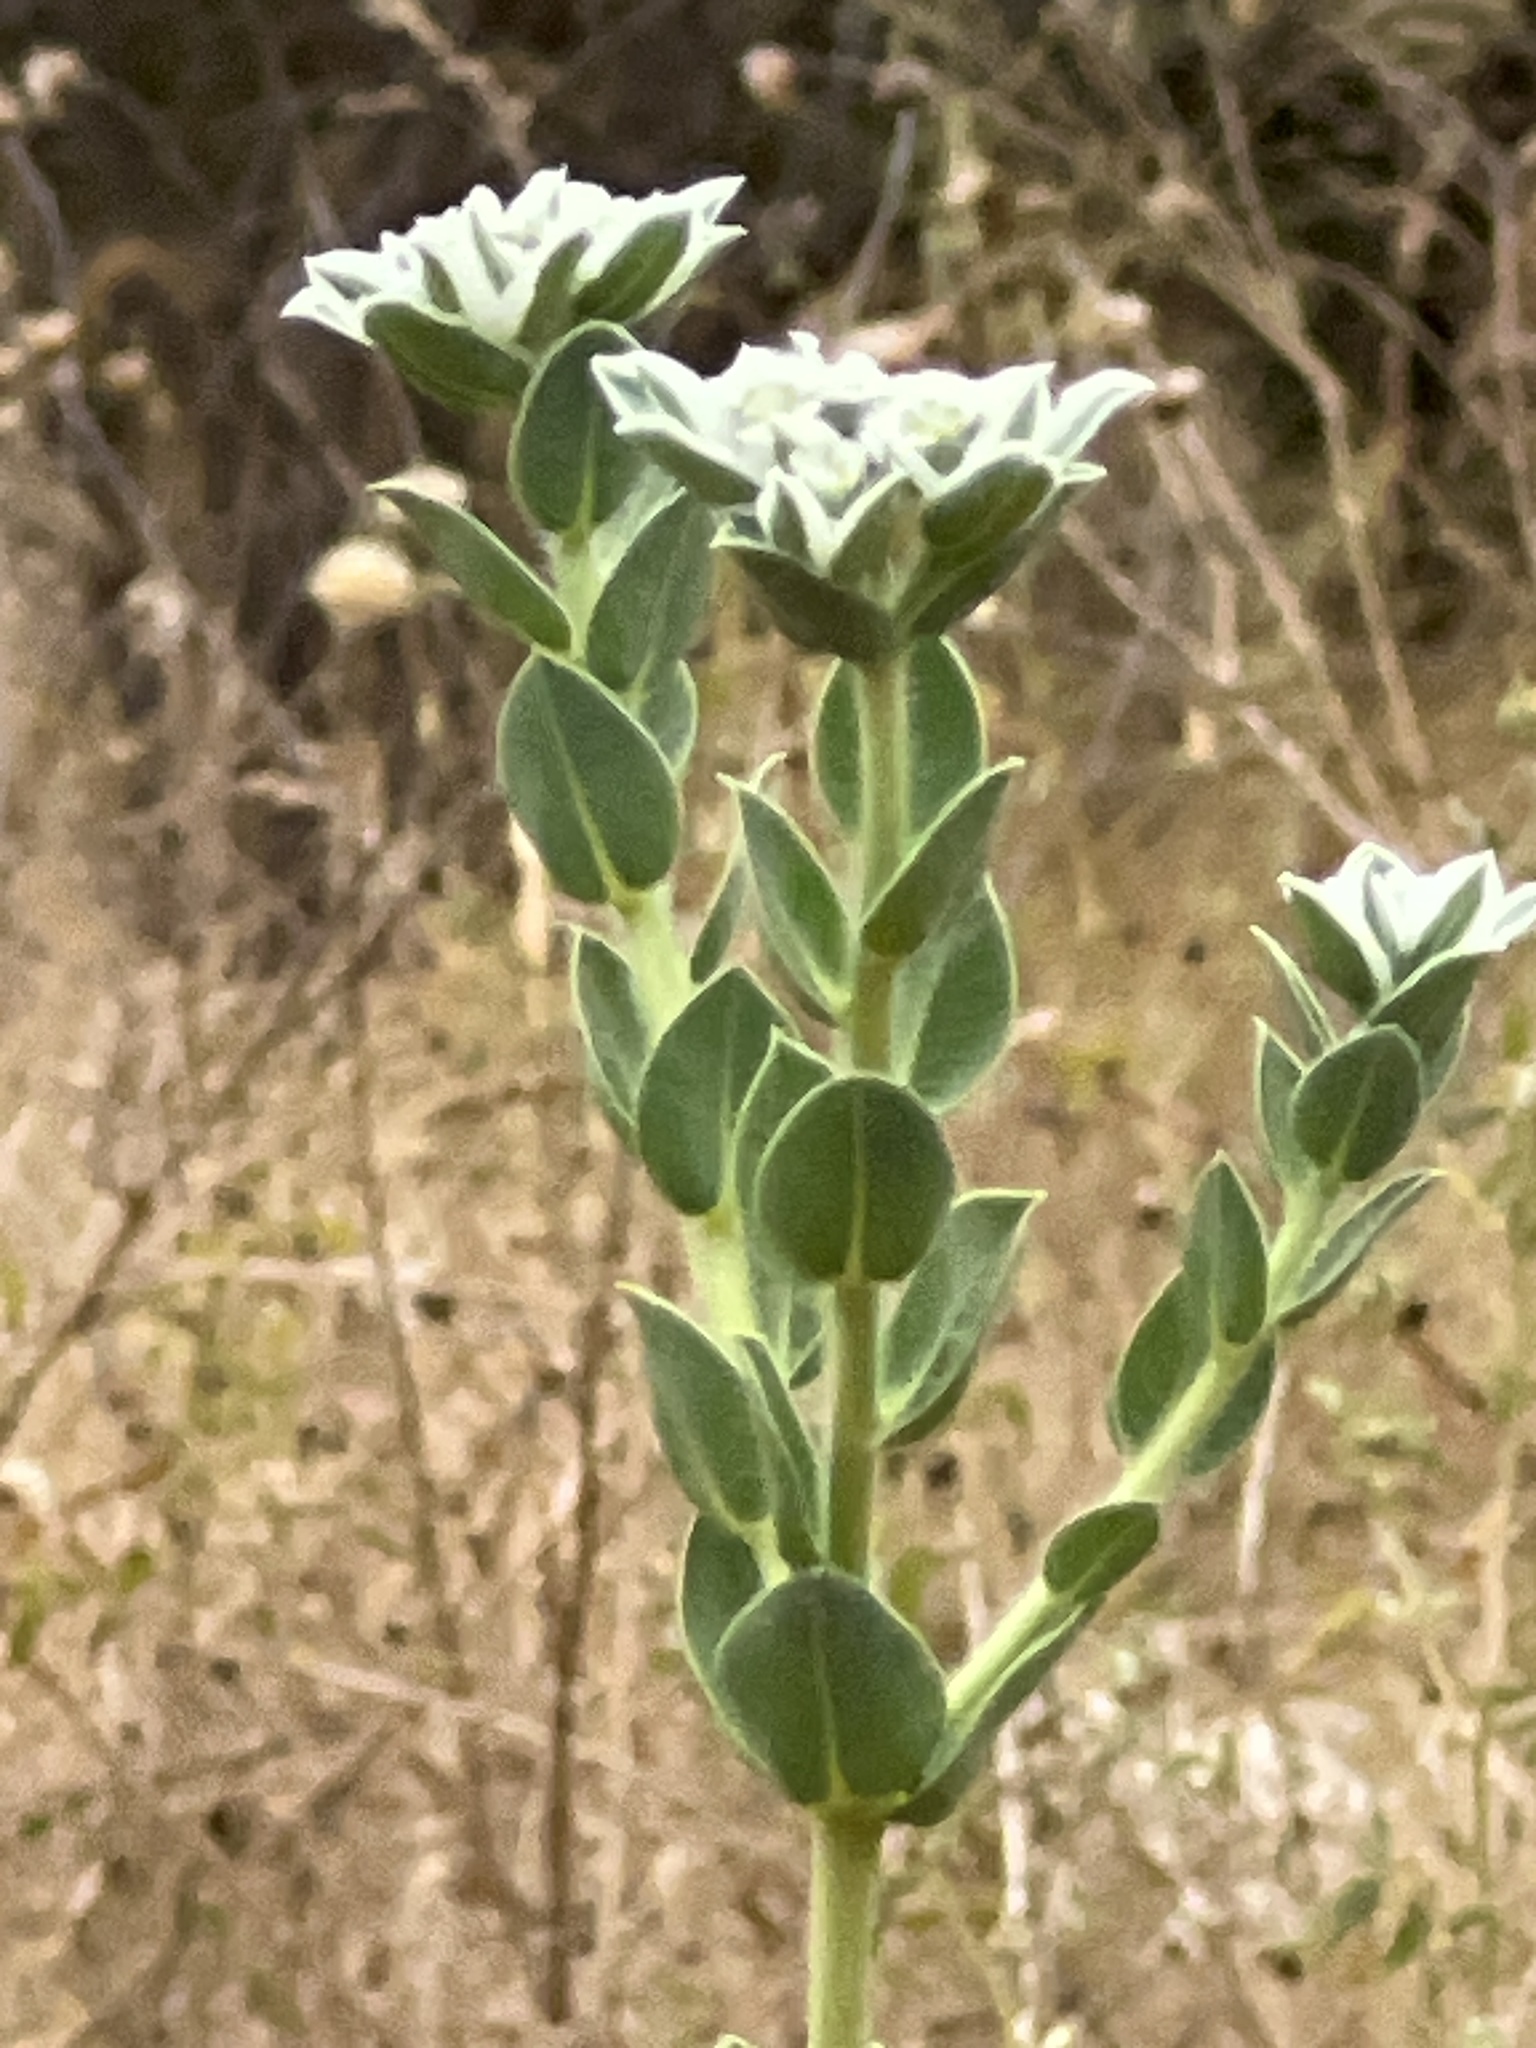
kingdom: Plantae
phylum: Tracheophyta
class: Magnoliopsida
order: Malpighiales
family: Euphorbiaceae
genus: Euphorbia
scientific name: Euphorbia marginata
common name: Ghostweed
